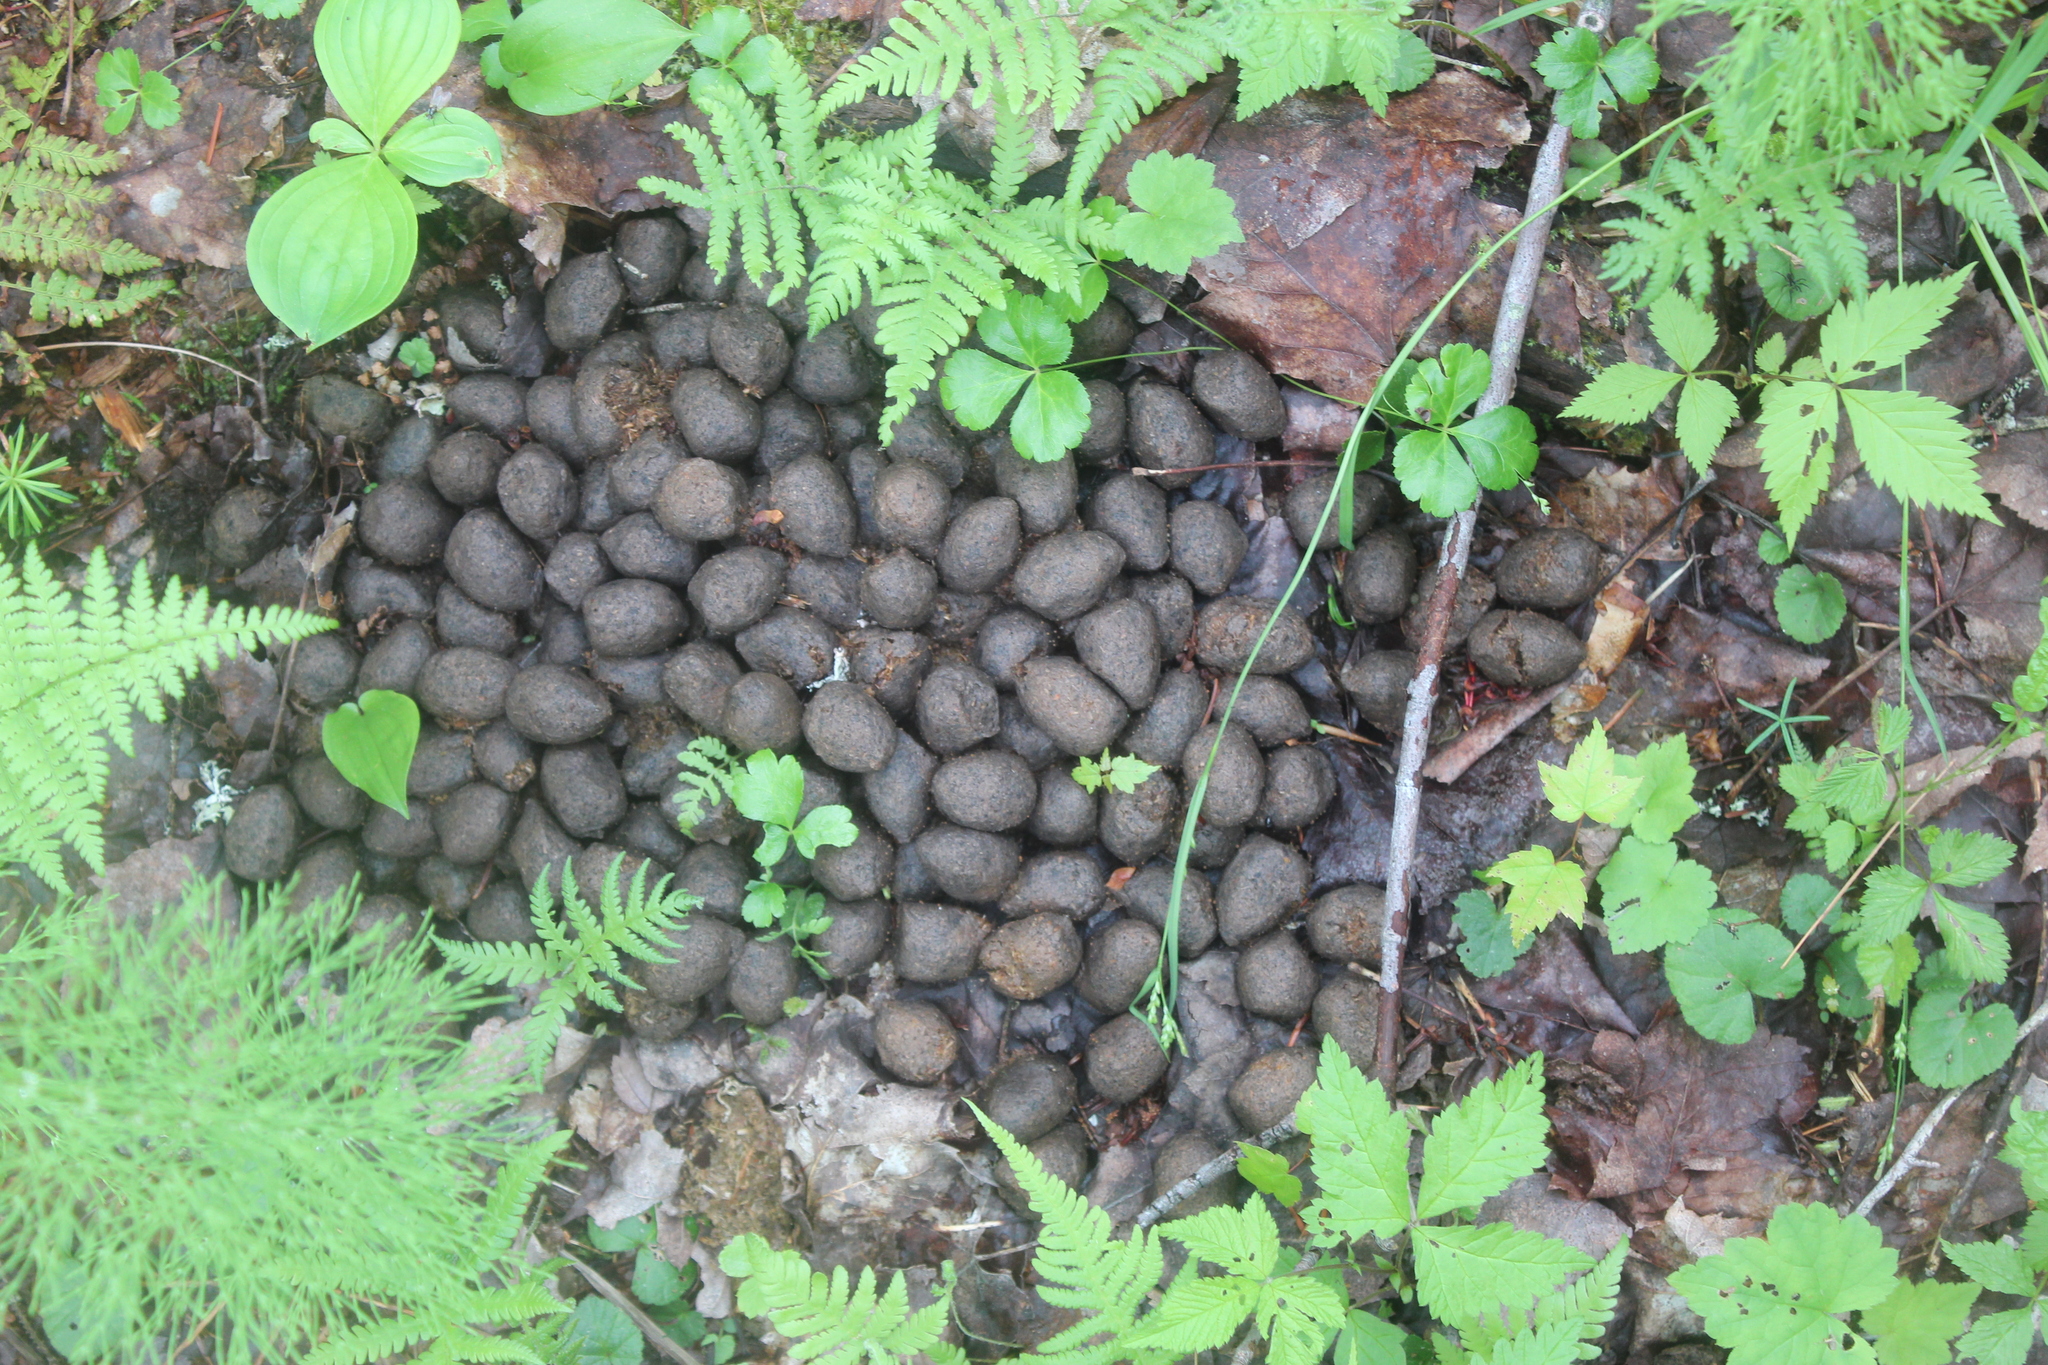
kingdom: Animalia
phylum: Chordata
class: Mammalia
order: Artiodactyla
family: Cervidae
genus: Alces
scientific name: Alces alces
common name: Moose
